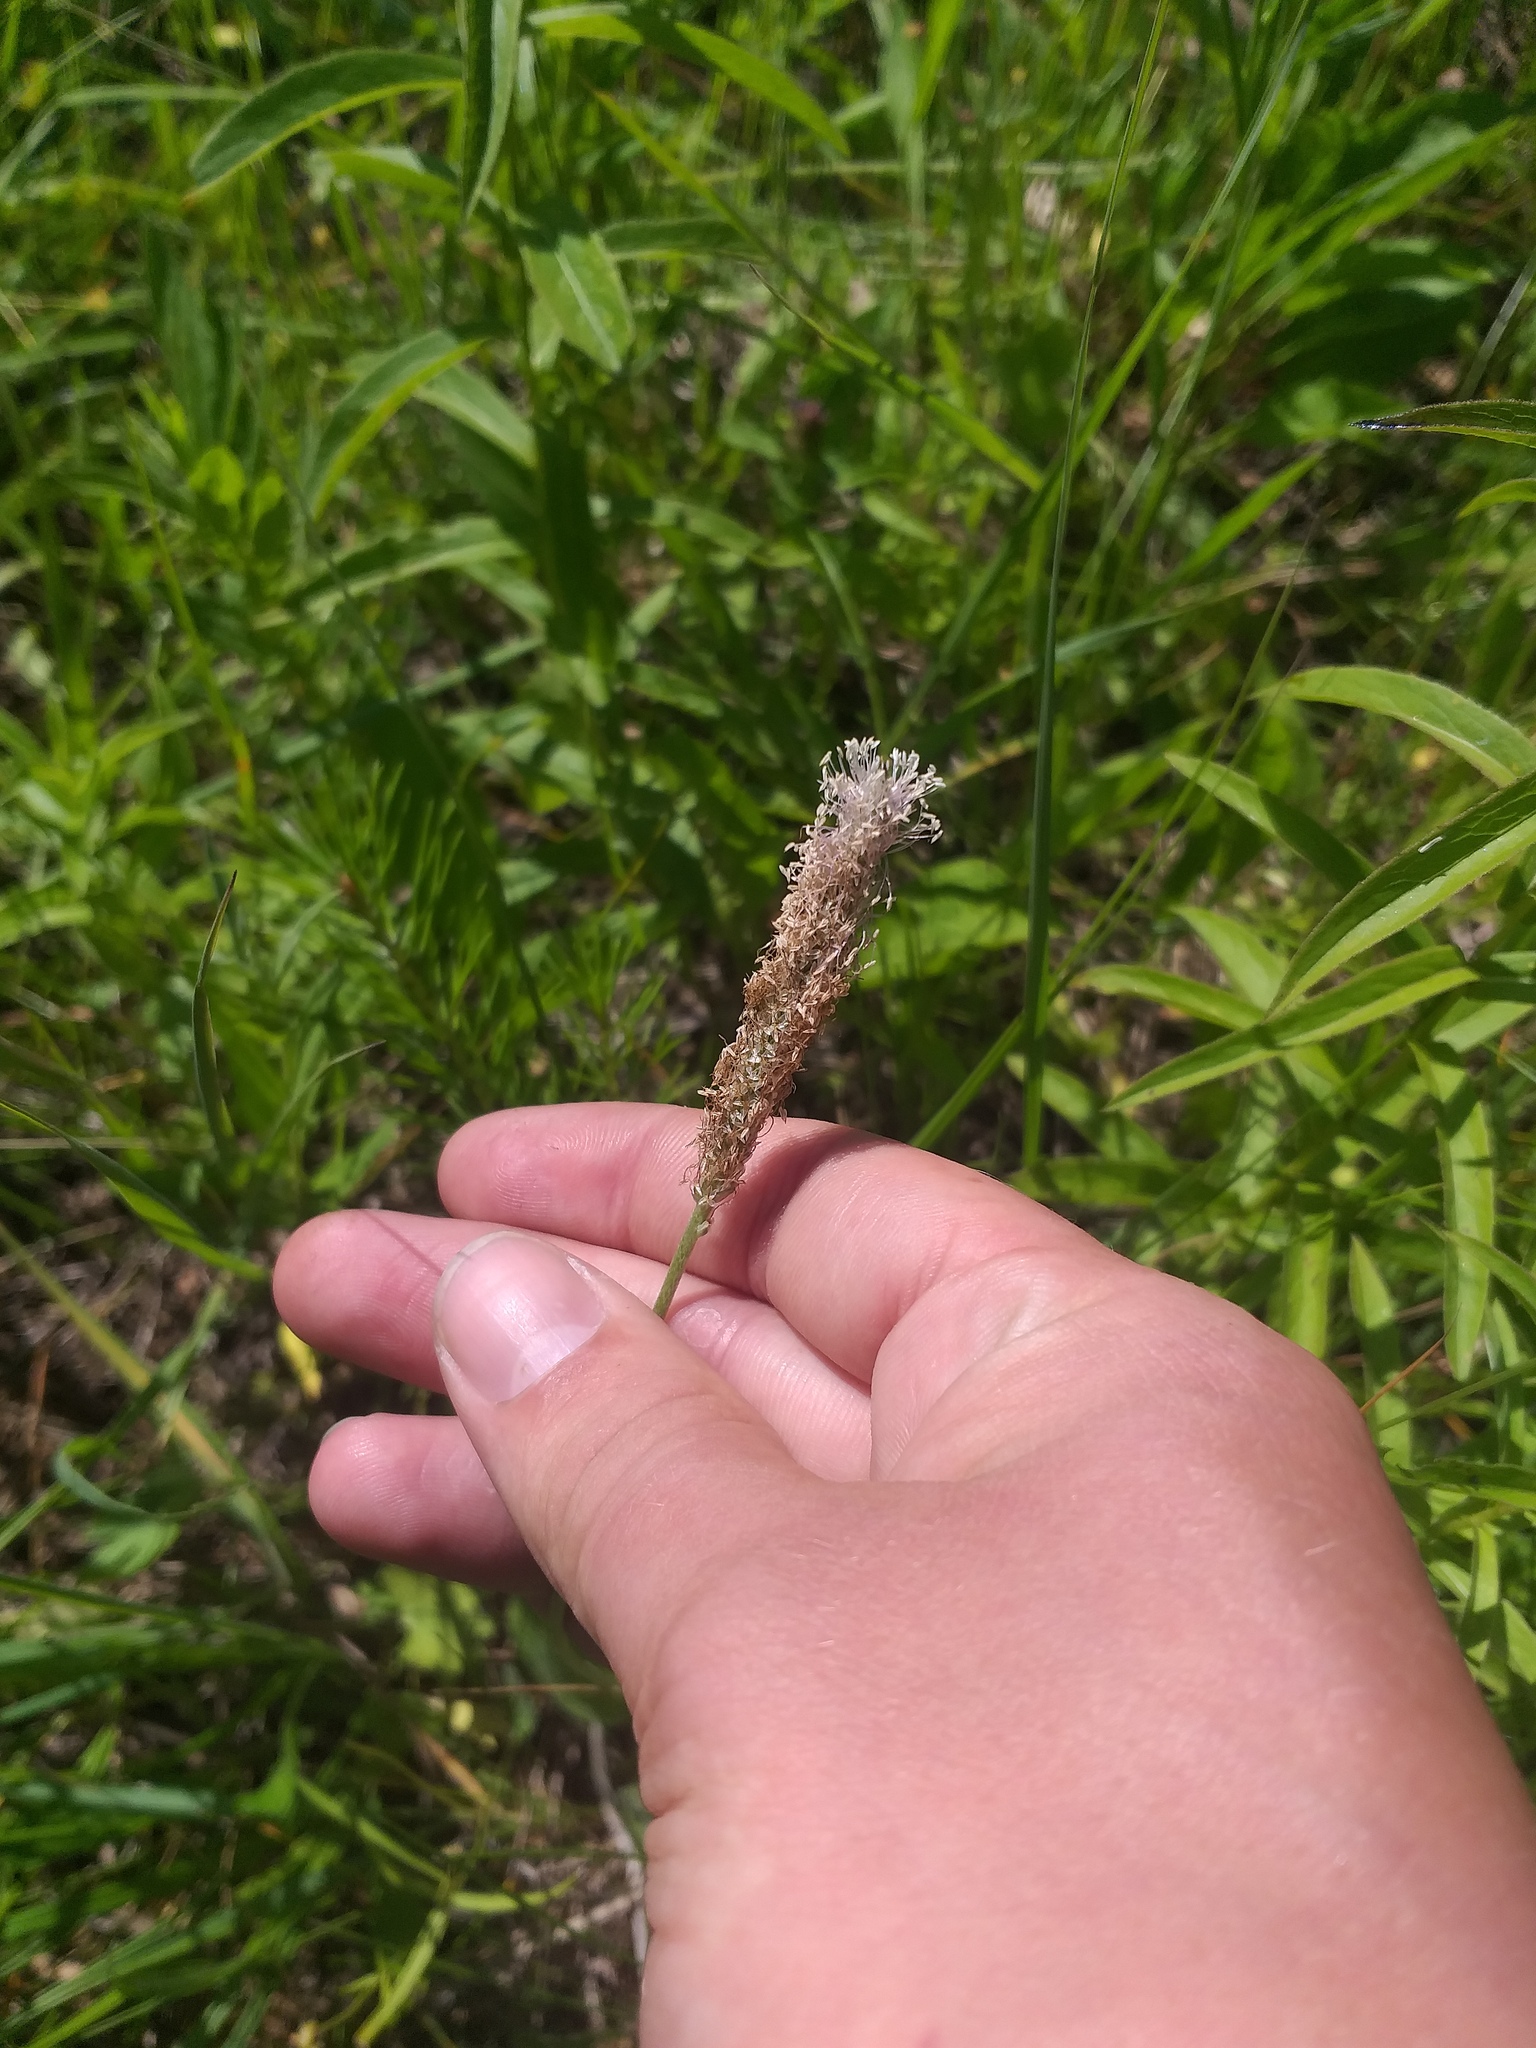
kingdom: Plantae
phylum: Tracheophyta
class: Magnoliopsida
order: Lamiales
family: Plantaginaceae
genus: Plantago
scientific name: Plantago urvillei
